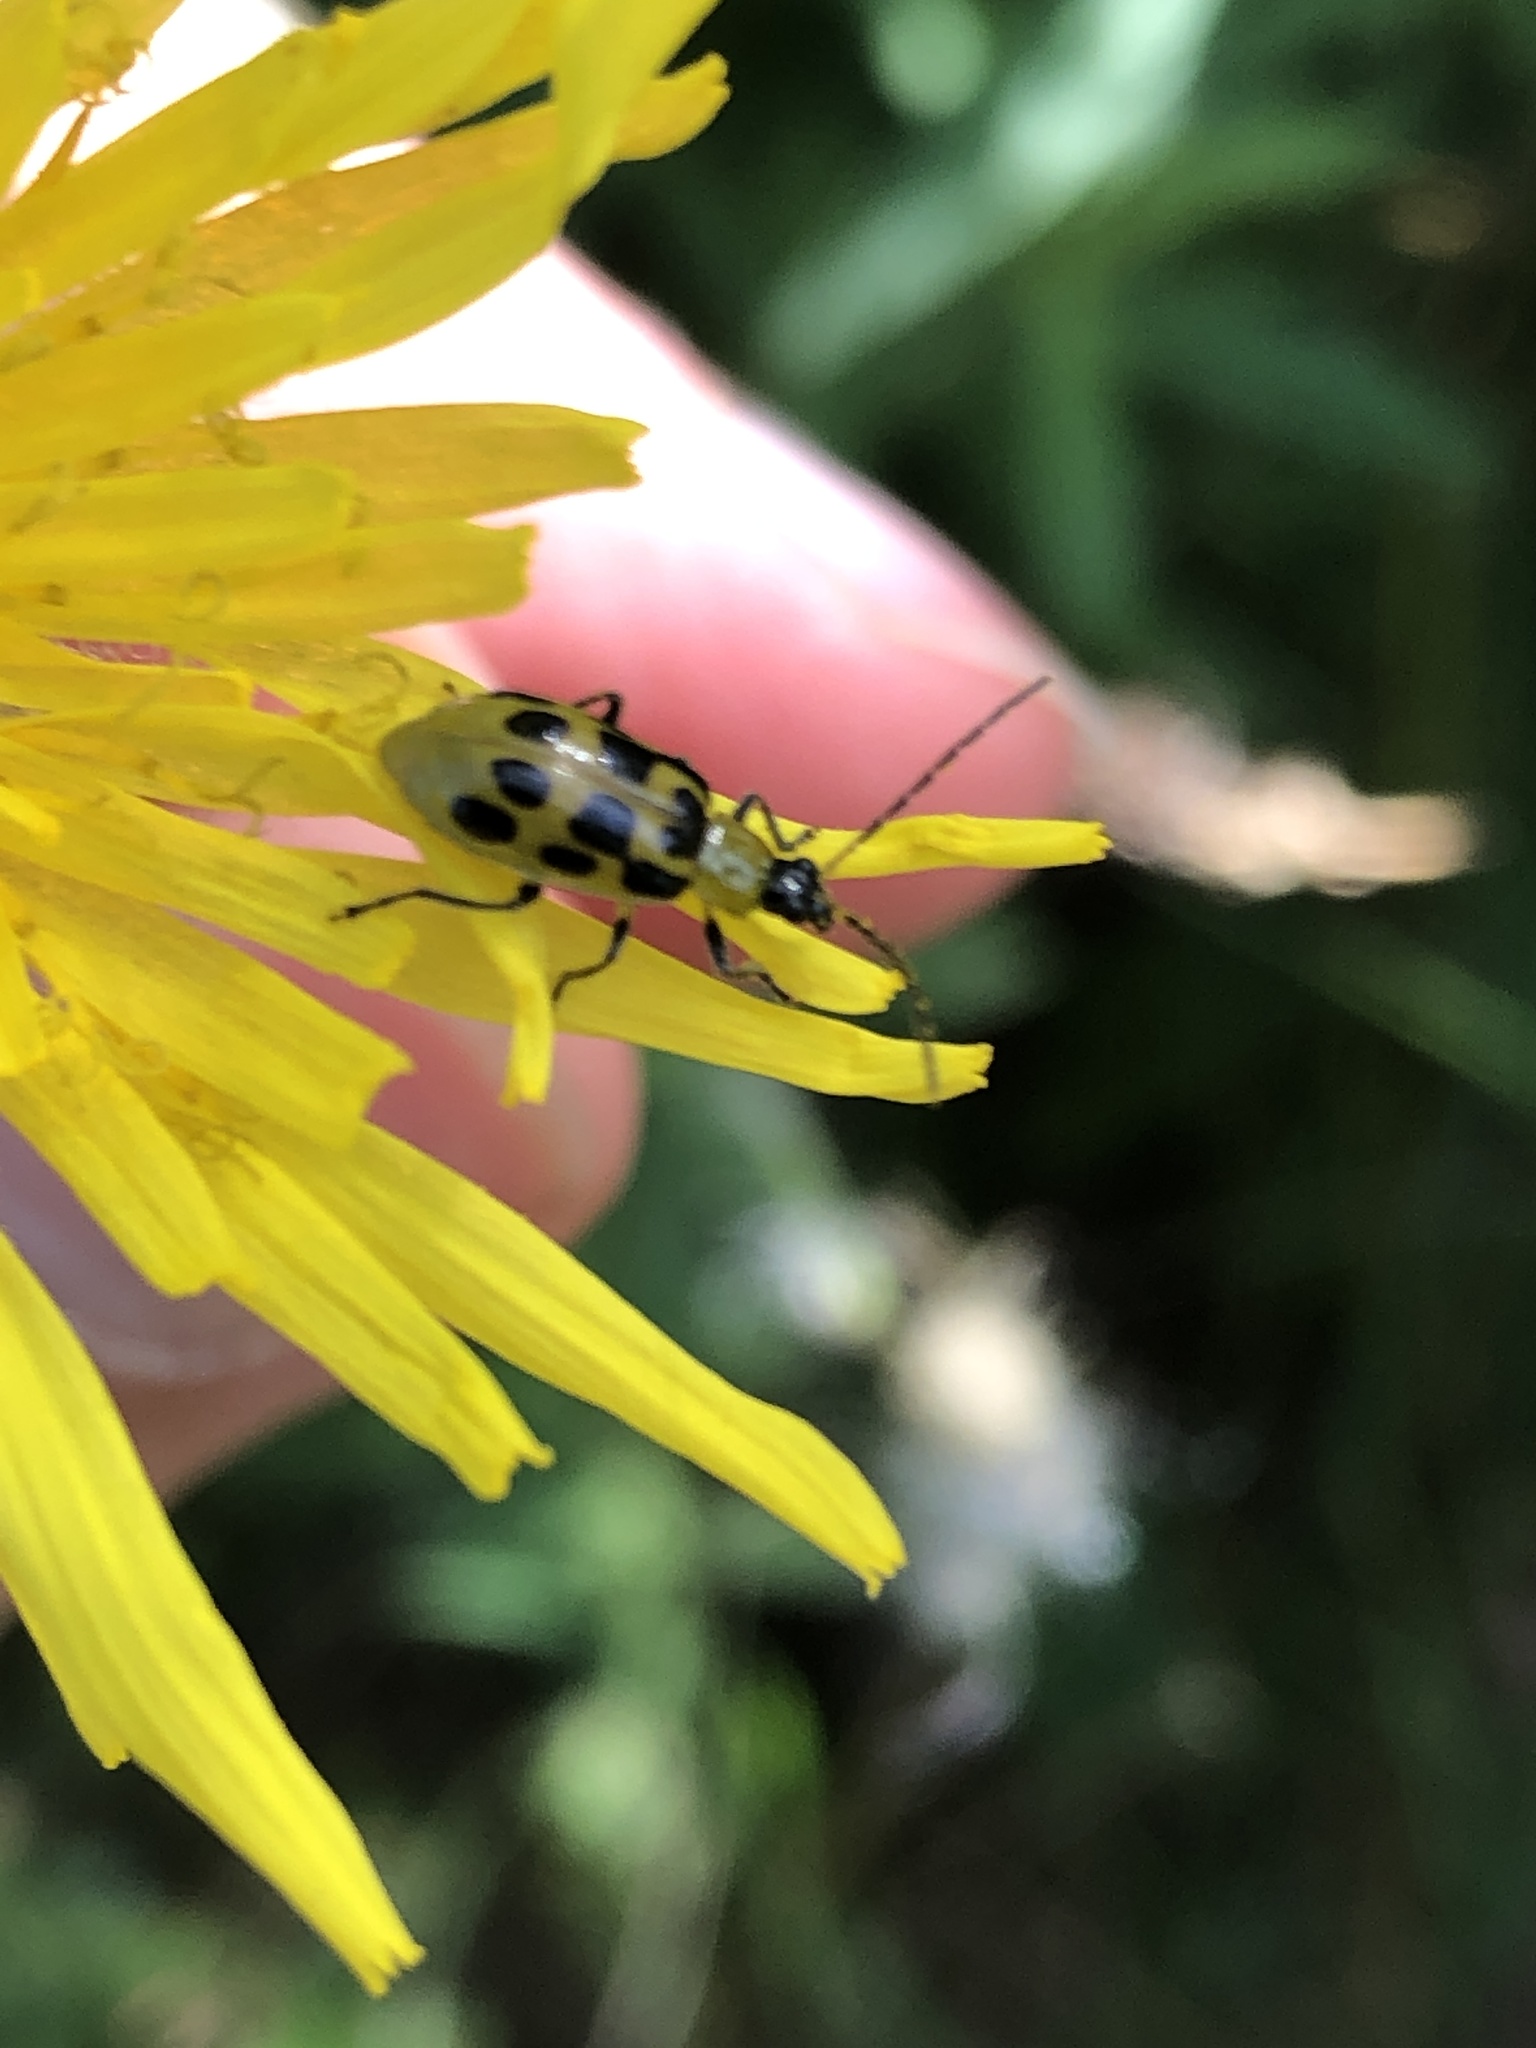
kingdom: Animalia
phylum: Arthropoda
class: Insecta
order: Coleoptera
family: Chrysomelidae
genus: Diabrotica
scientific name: Diabrotica undecimpunctata
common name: Spotted cucumber beetle
